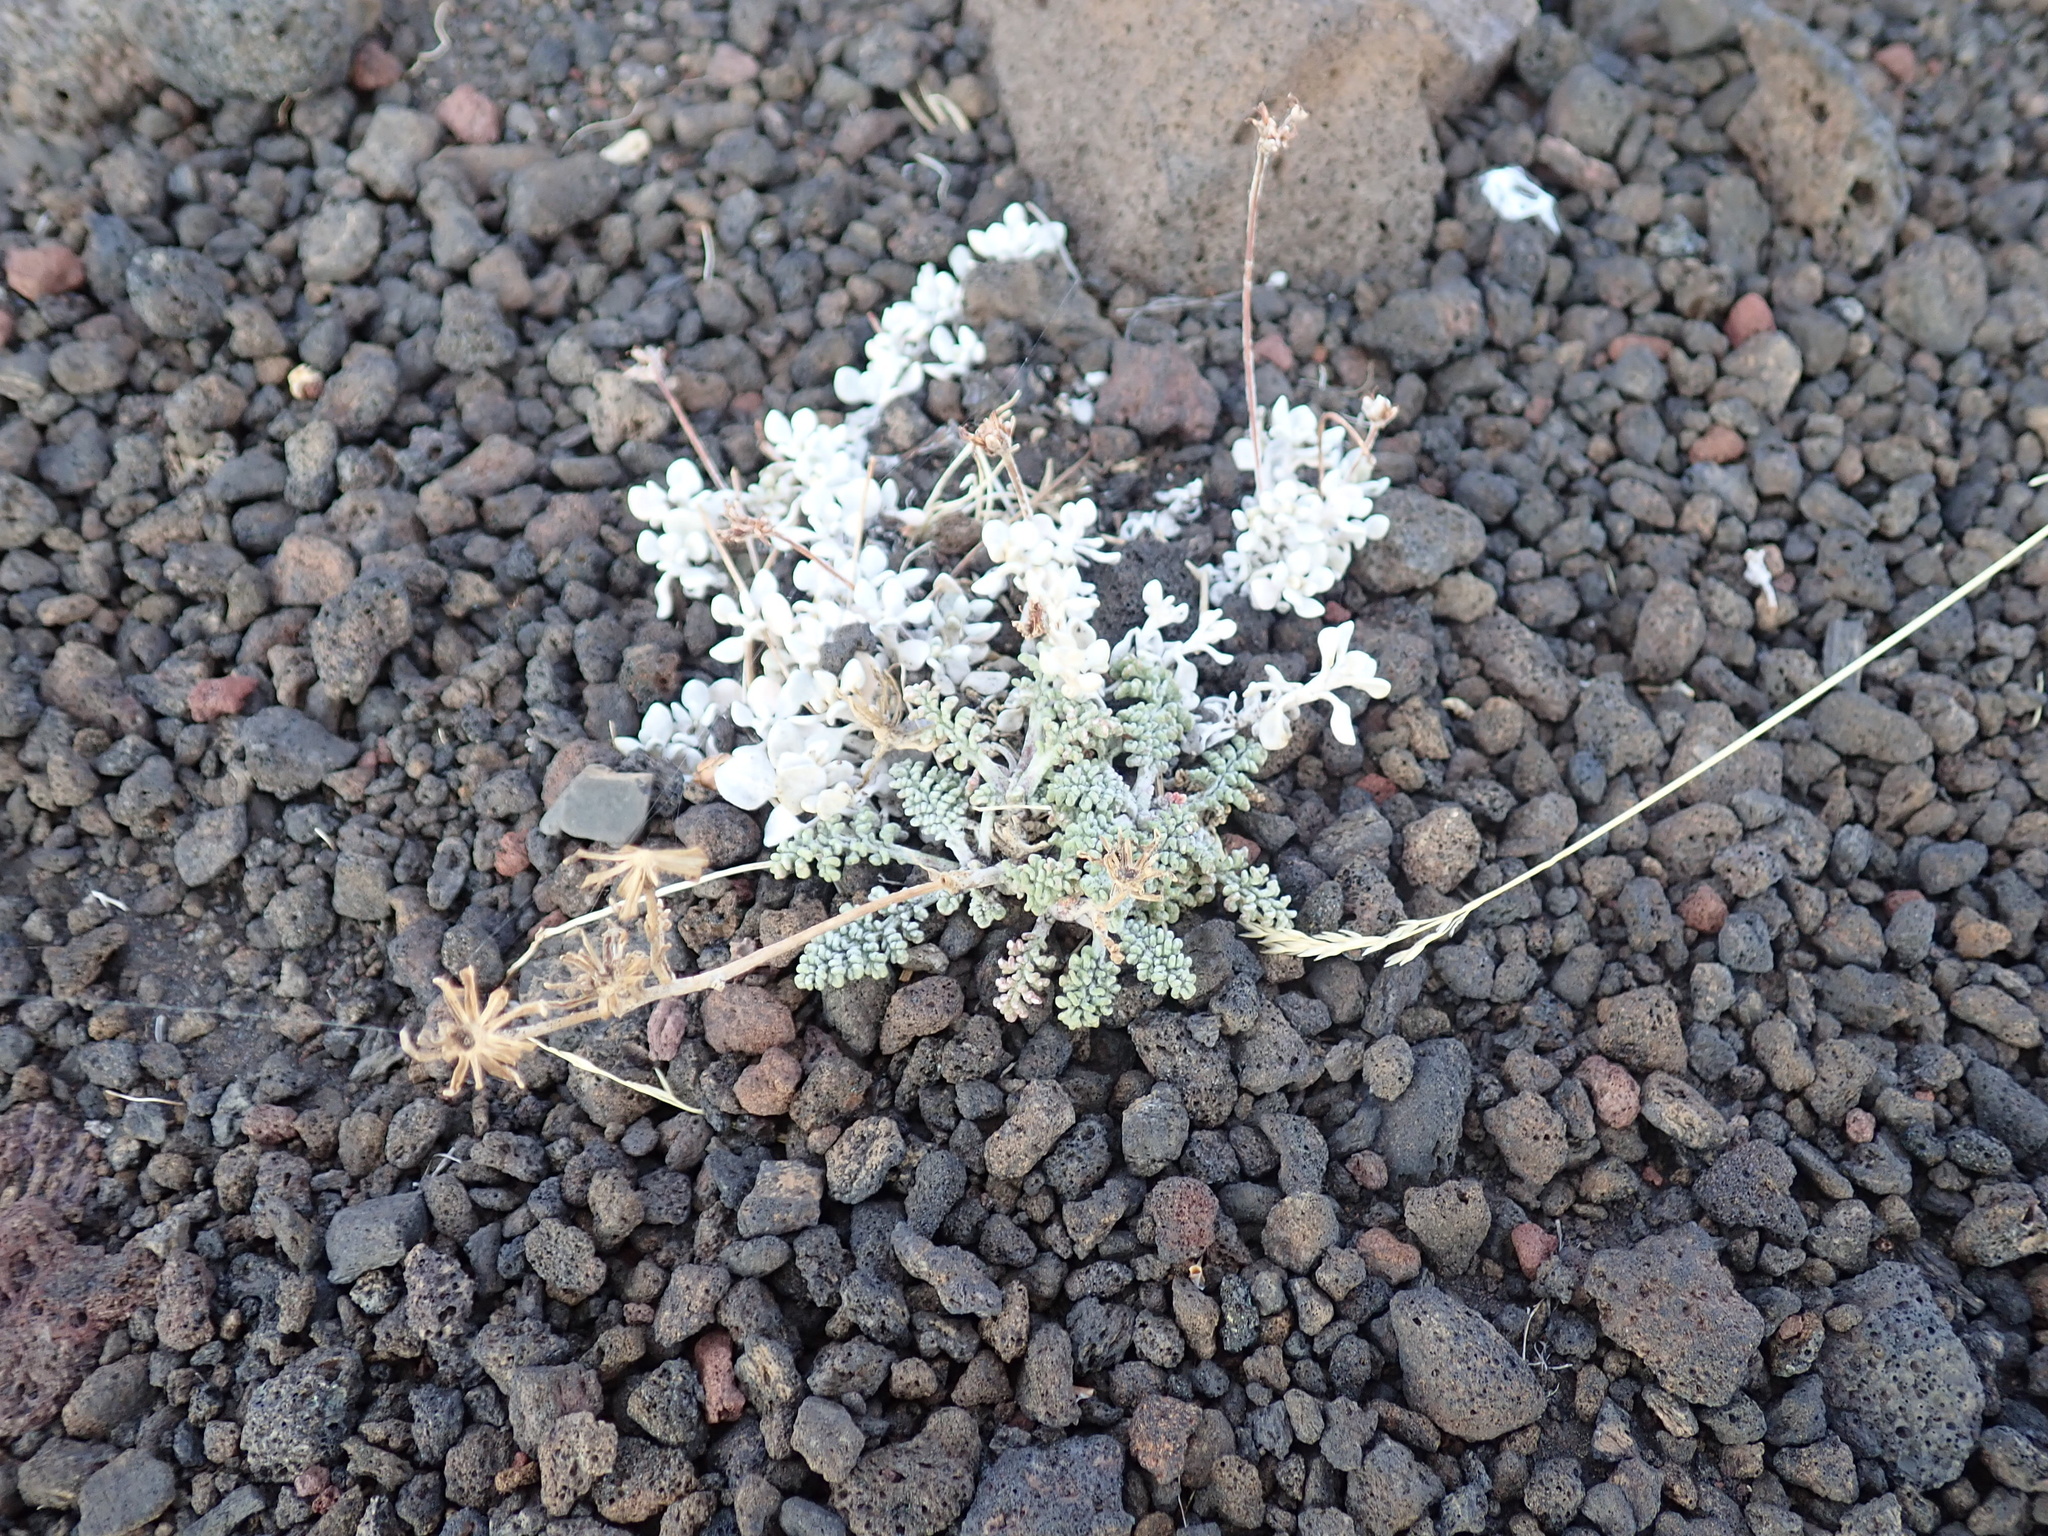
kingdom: Plantae
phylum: Tracheophyta
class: Magnoliopsida
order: Asterales
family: Asteraceae
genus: Chaenactis
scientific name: Chaenactis douglasii
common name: Hoary pincushion
